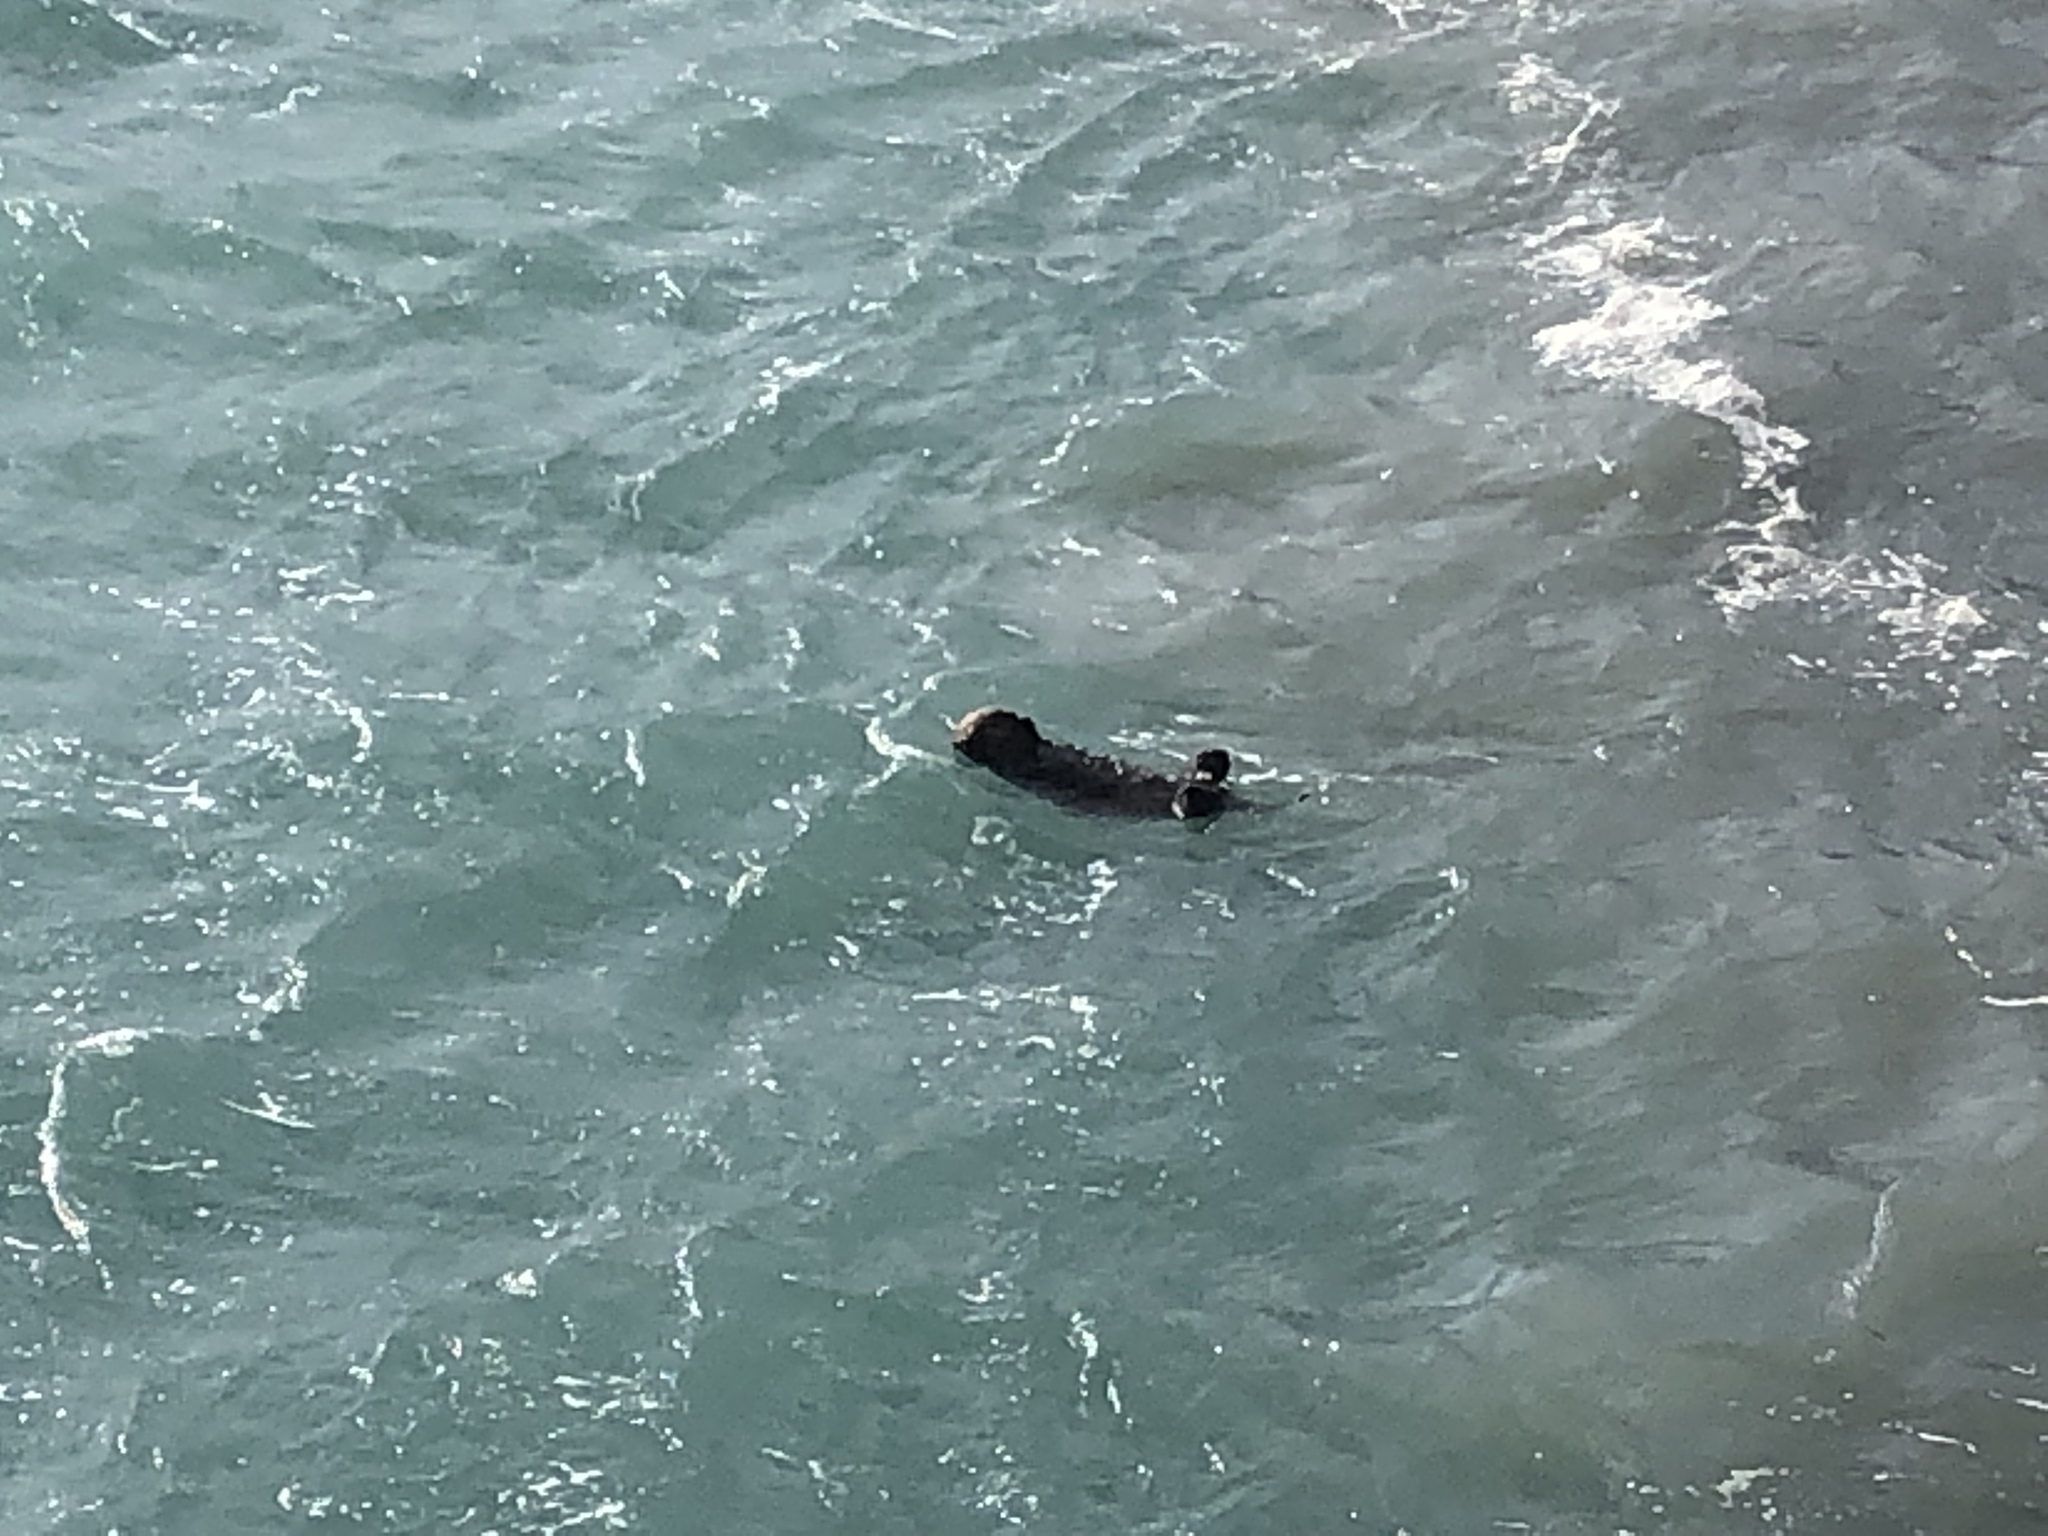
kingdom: Animalia
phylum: Chordata
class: Mammalia
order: Carnivora
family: Mustelidae
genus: Enhydra
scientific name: Enhydra lutris
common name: Sea otter
